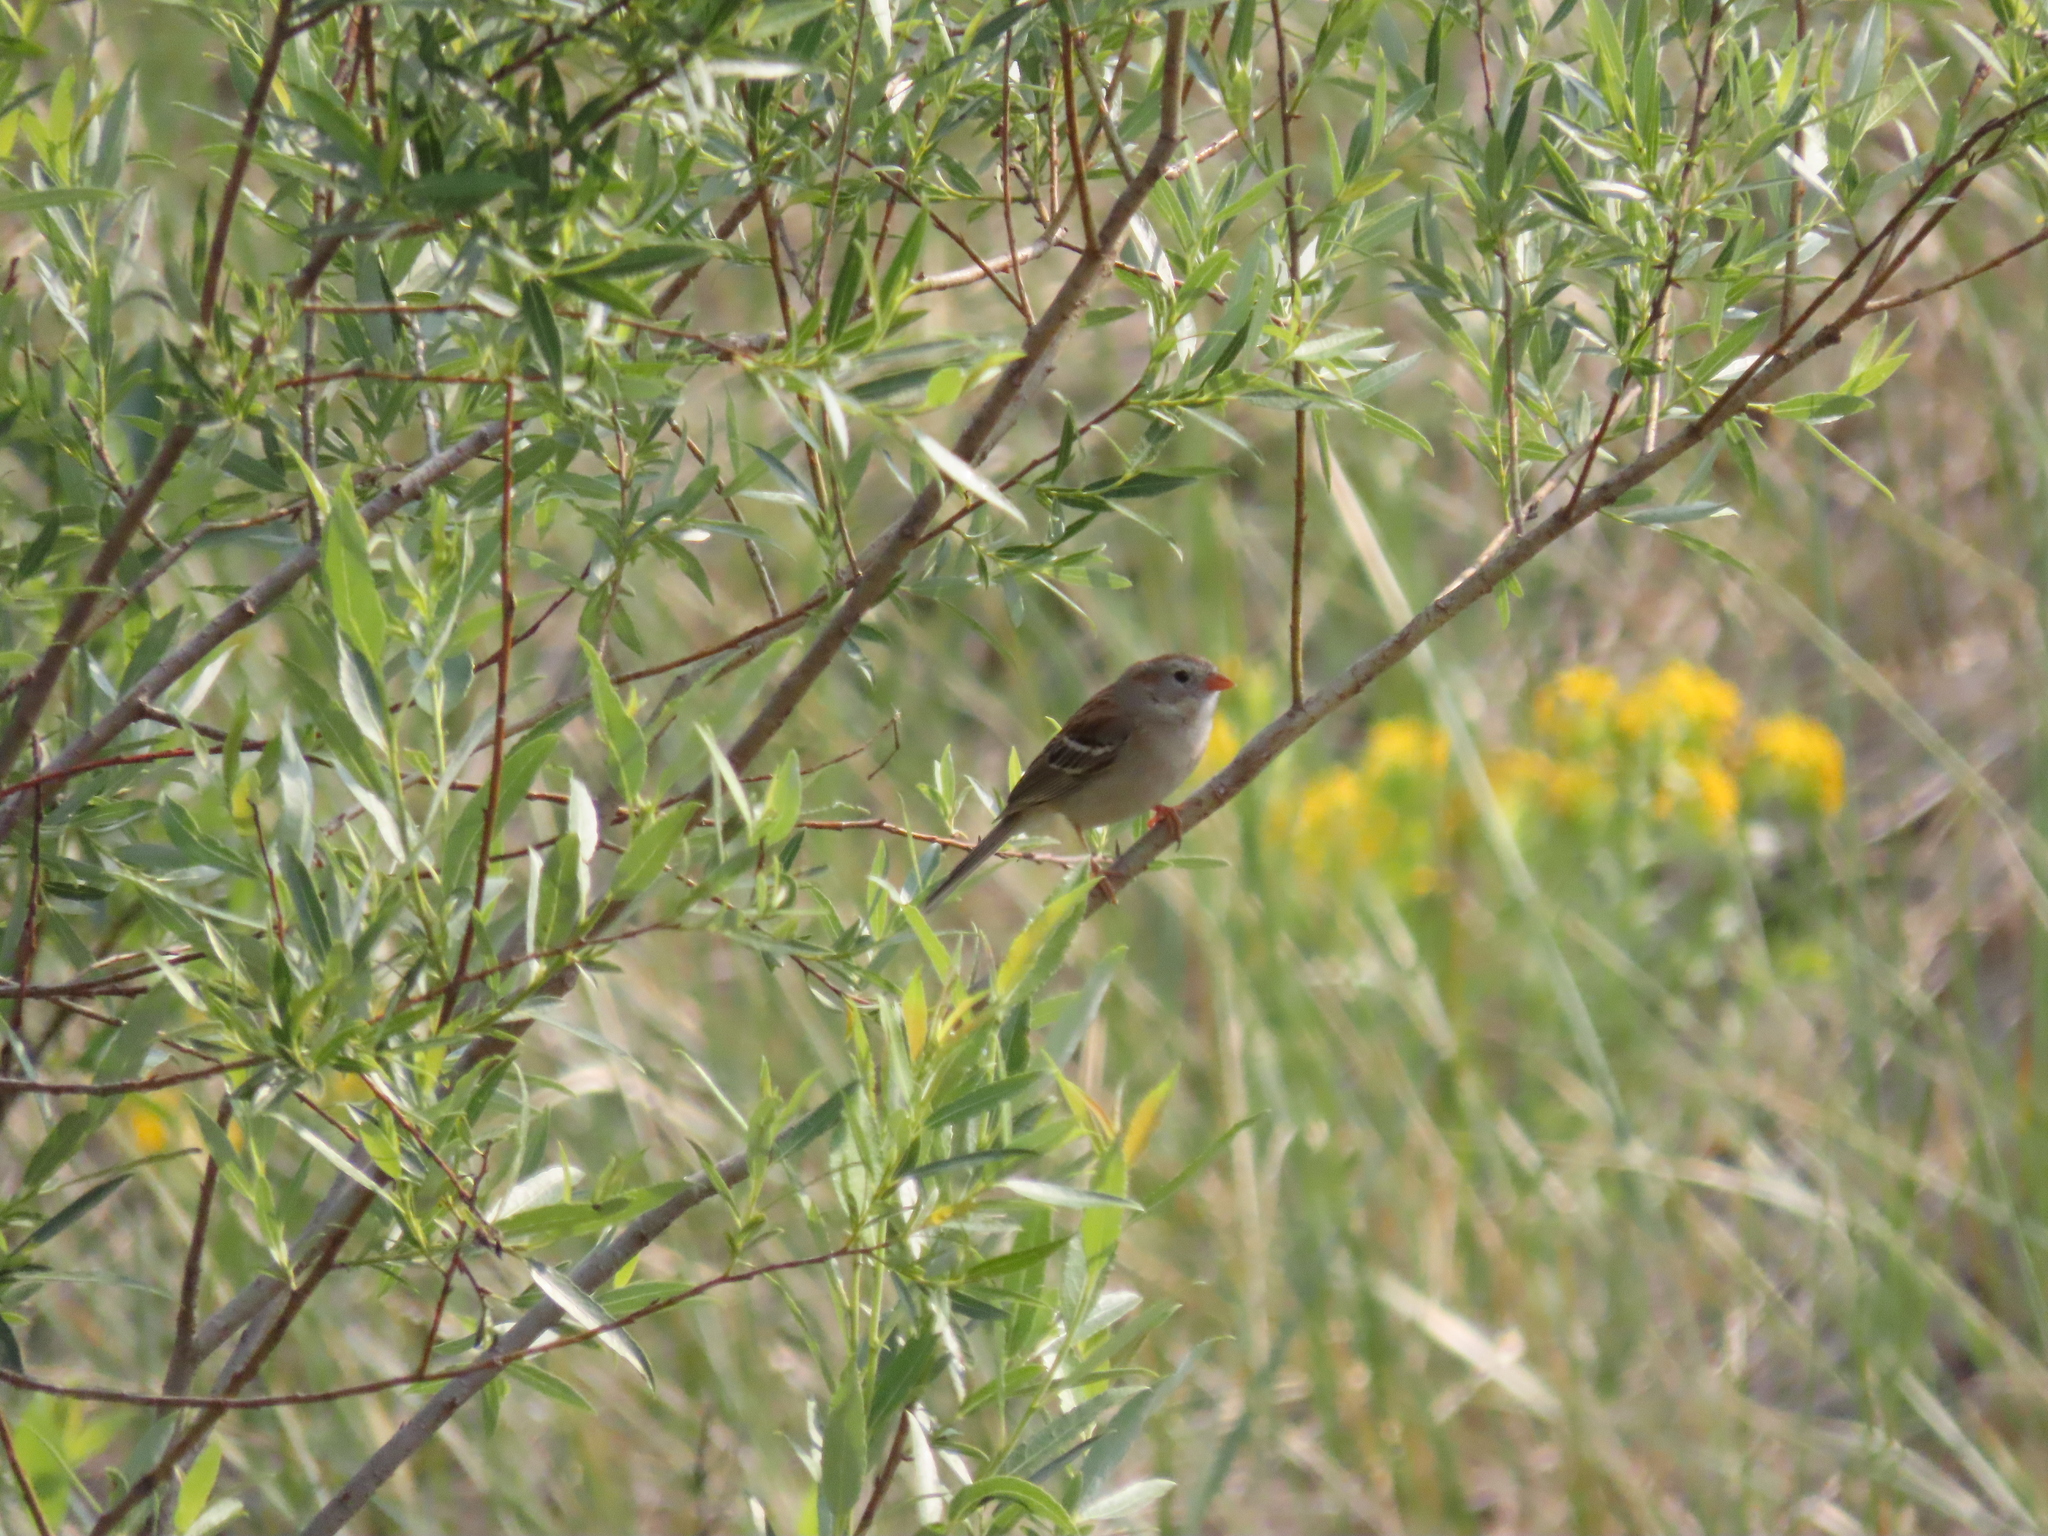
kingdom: Animalia
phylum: Chordata
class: Aves
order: Passeriformes
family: Passerellidae
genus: Spizella
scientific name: Spizella pusilla
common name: Field sparrow
